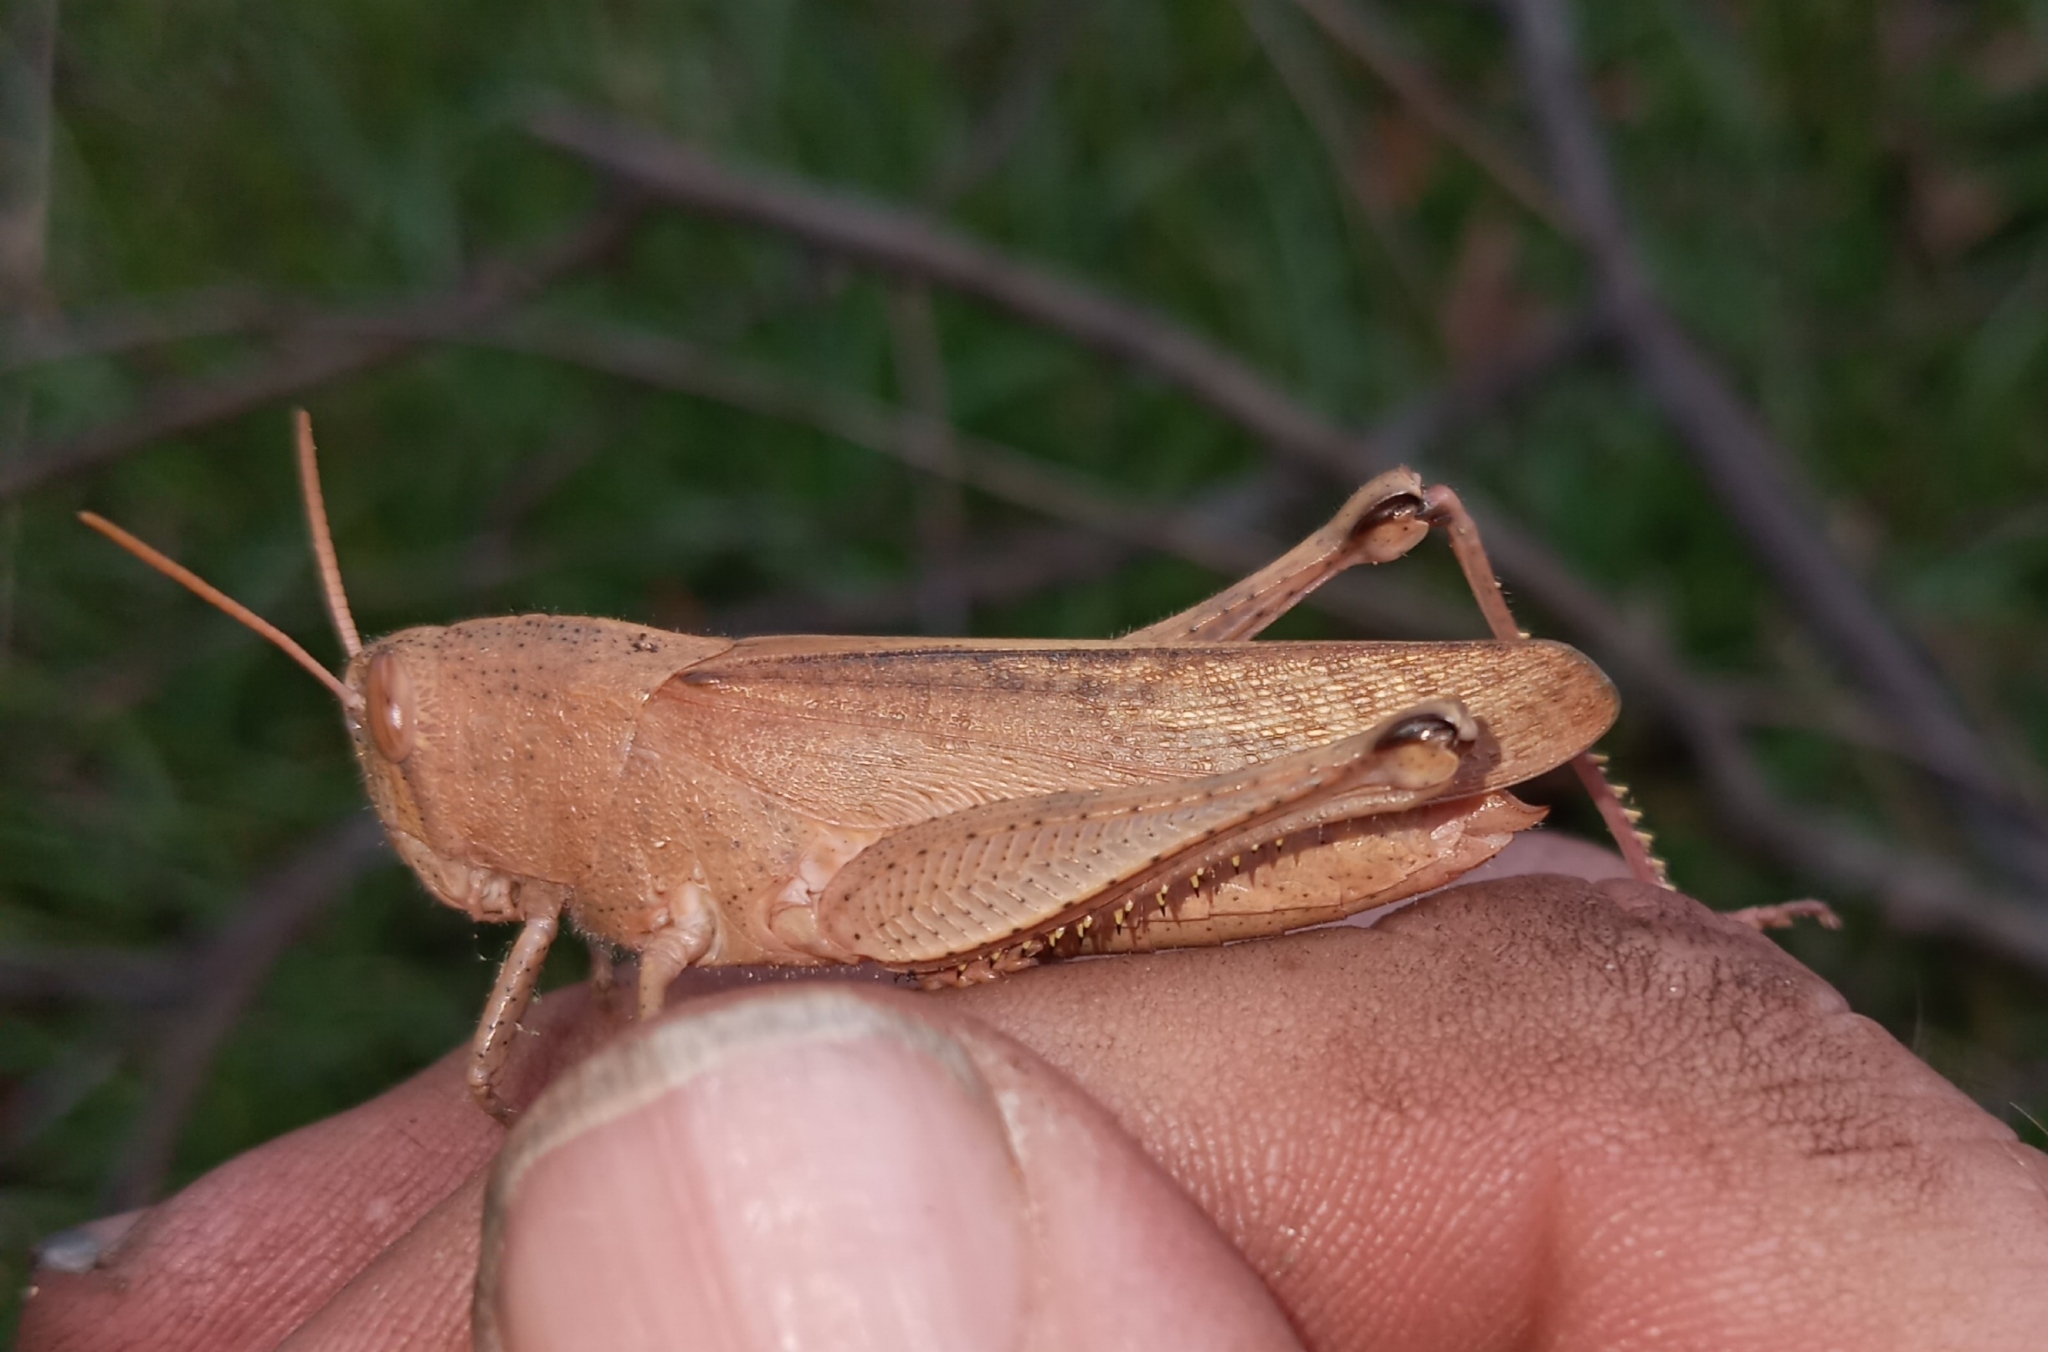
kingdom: Animalia
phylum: Arthropoda
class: Insecta
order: Orthoptera
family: Acrididae
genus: Schistocerca
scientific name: Schistocerca damnifica
